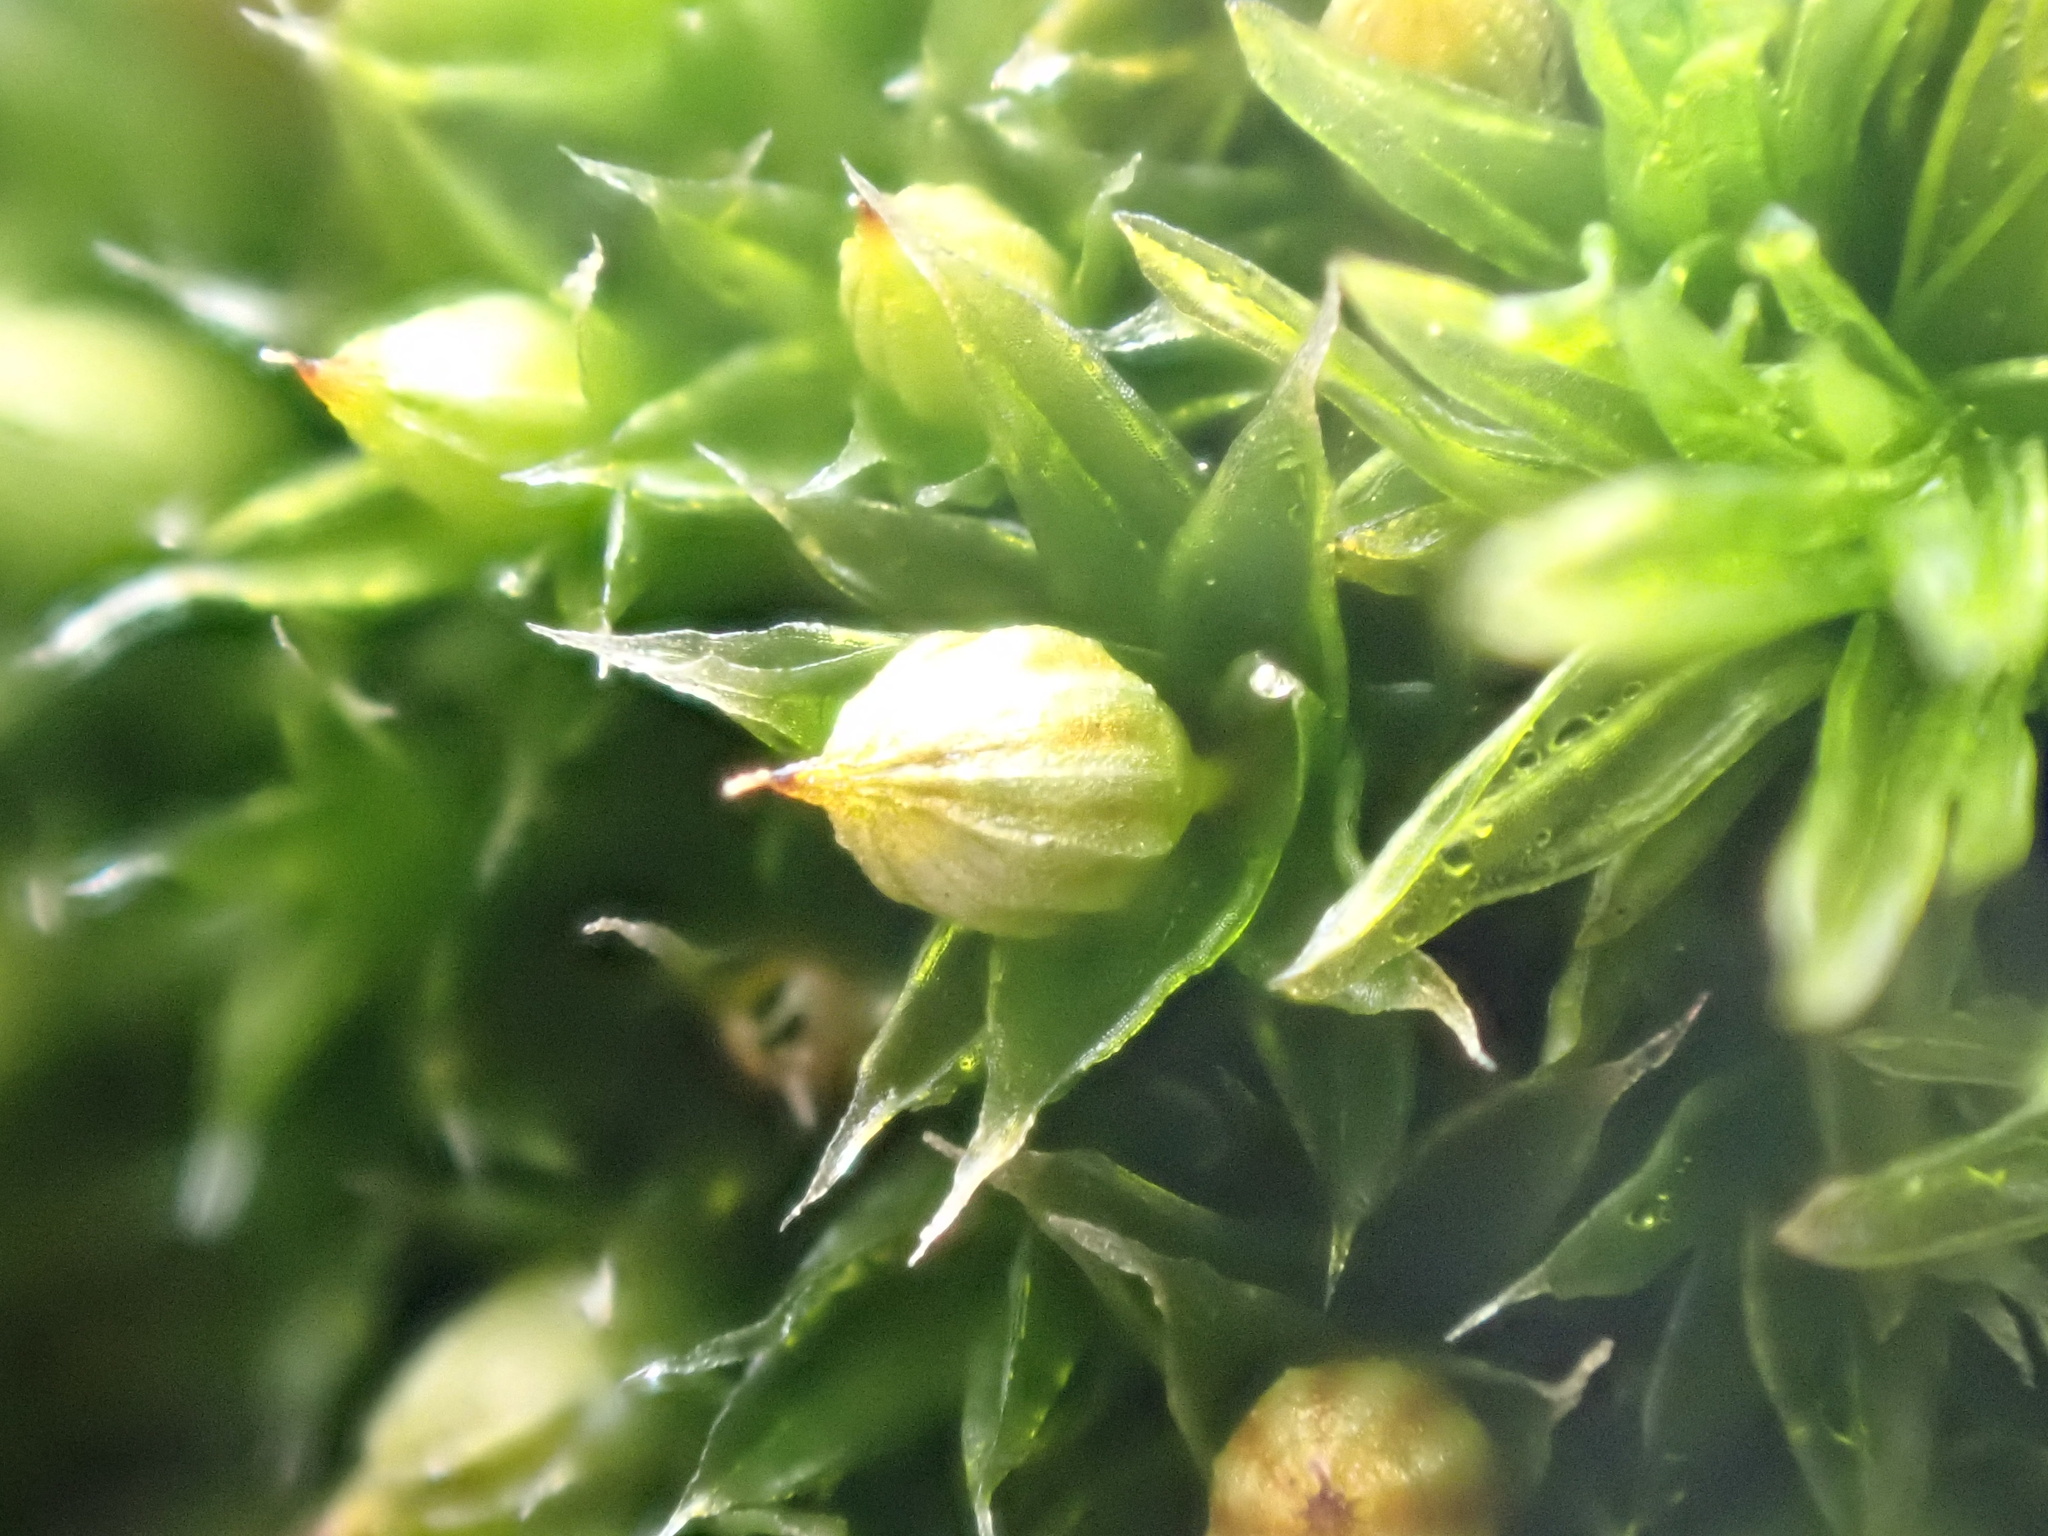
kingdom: Plantae
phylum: Bryophyta
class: Bryopsida
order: Orthotrichales
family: Orthotrichaceae
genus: Orthotrichum
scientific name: Orthotrichum diaphanum
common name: White-tipped bristle-moss
